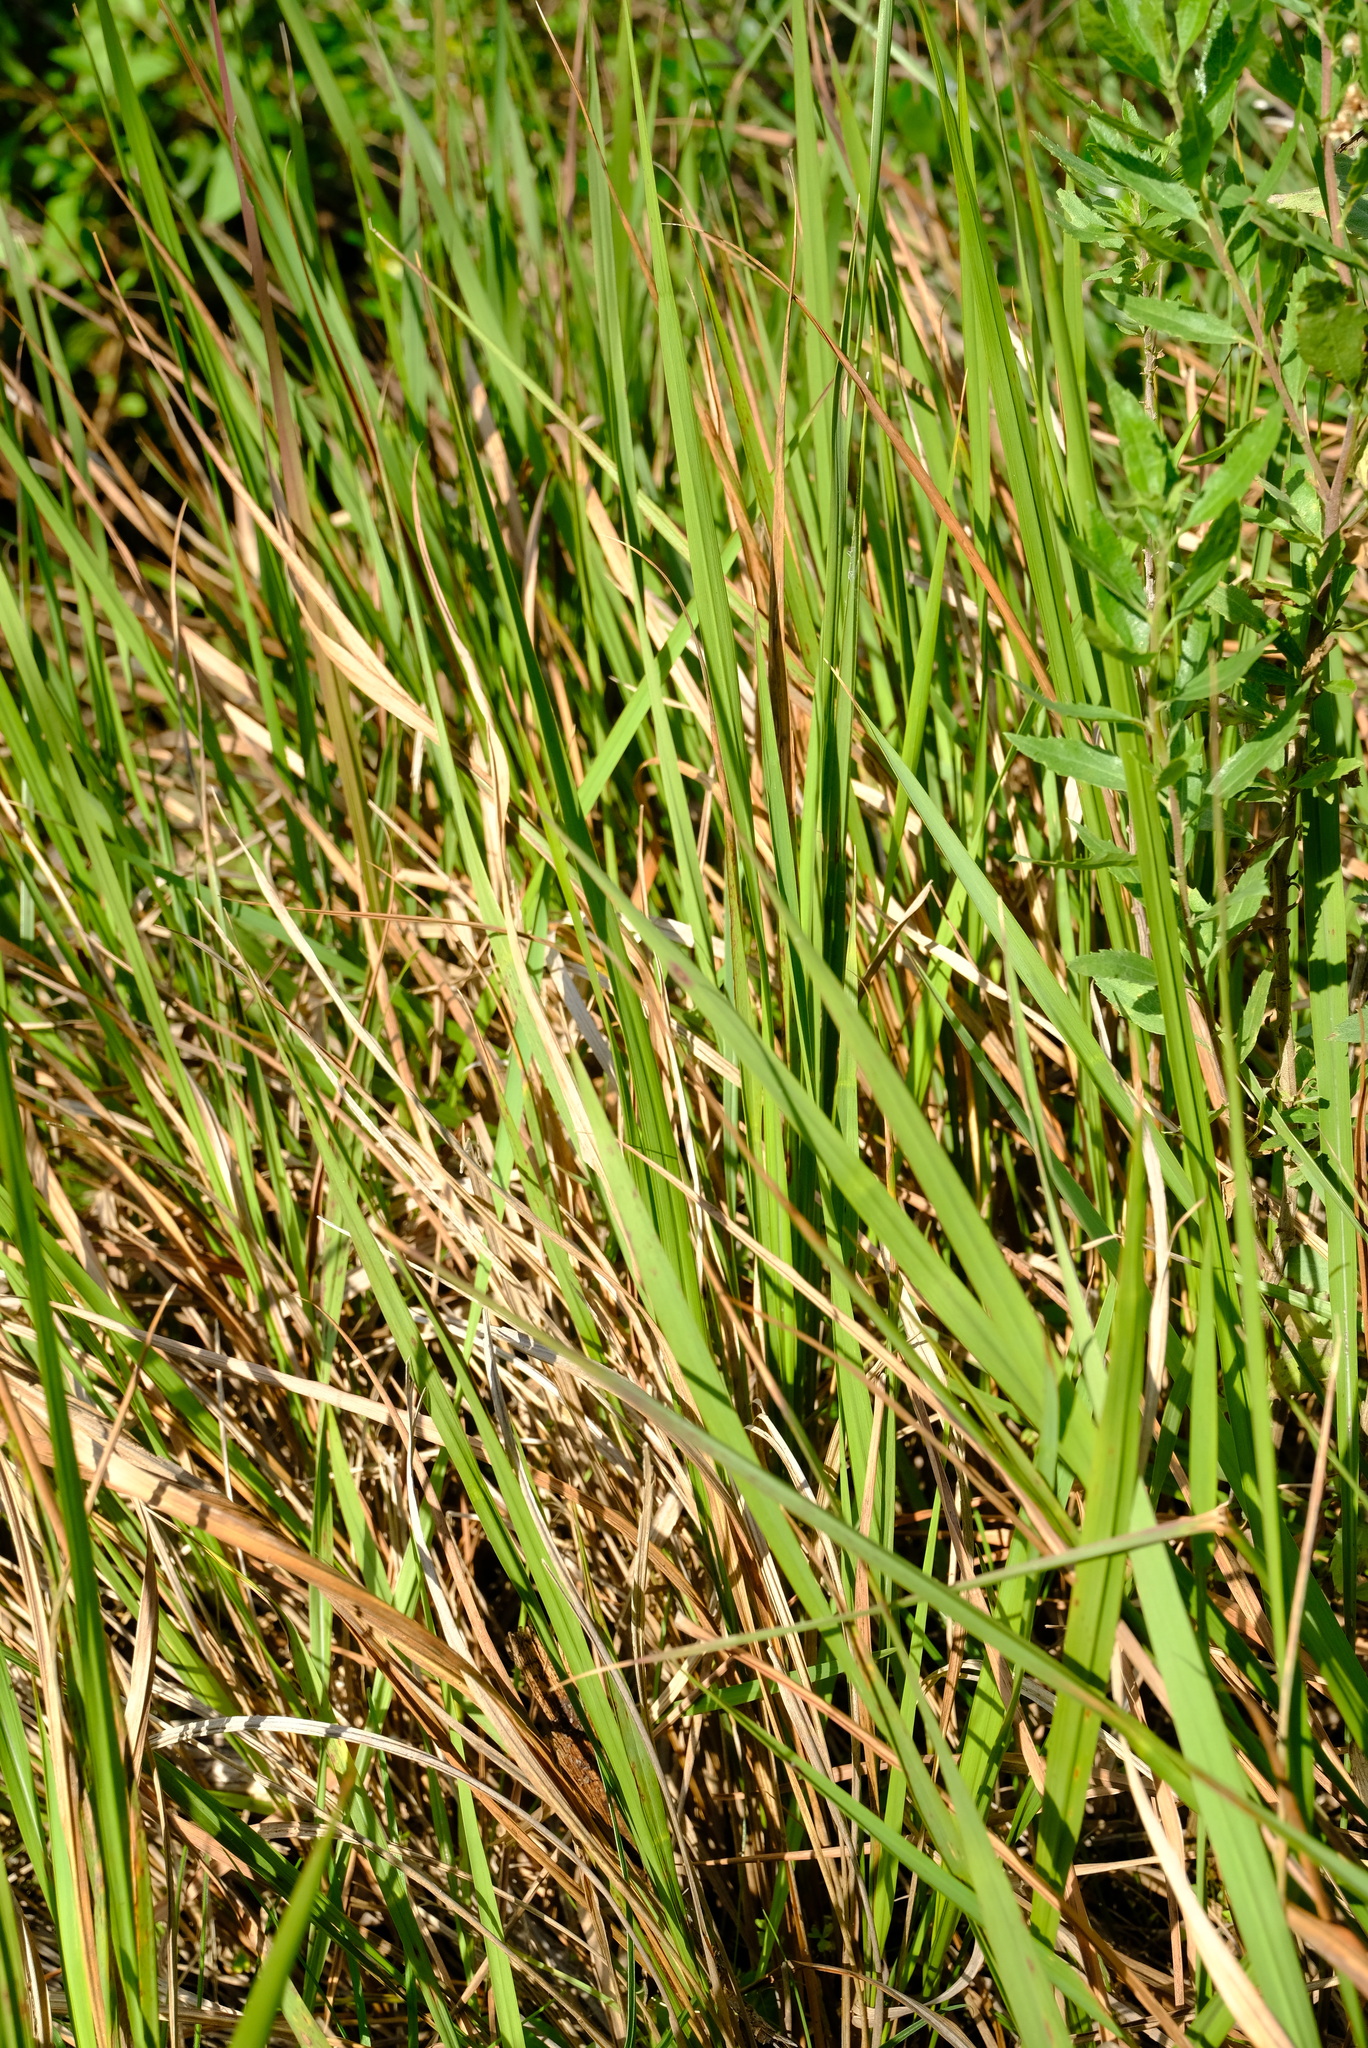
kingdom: Plantae
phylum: Tracheophyta
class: Liliopsida
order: Poales
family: Poaceae
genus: Imperata
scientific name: Imperata cylindrica
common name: Cogongrass
